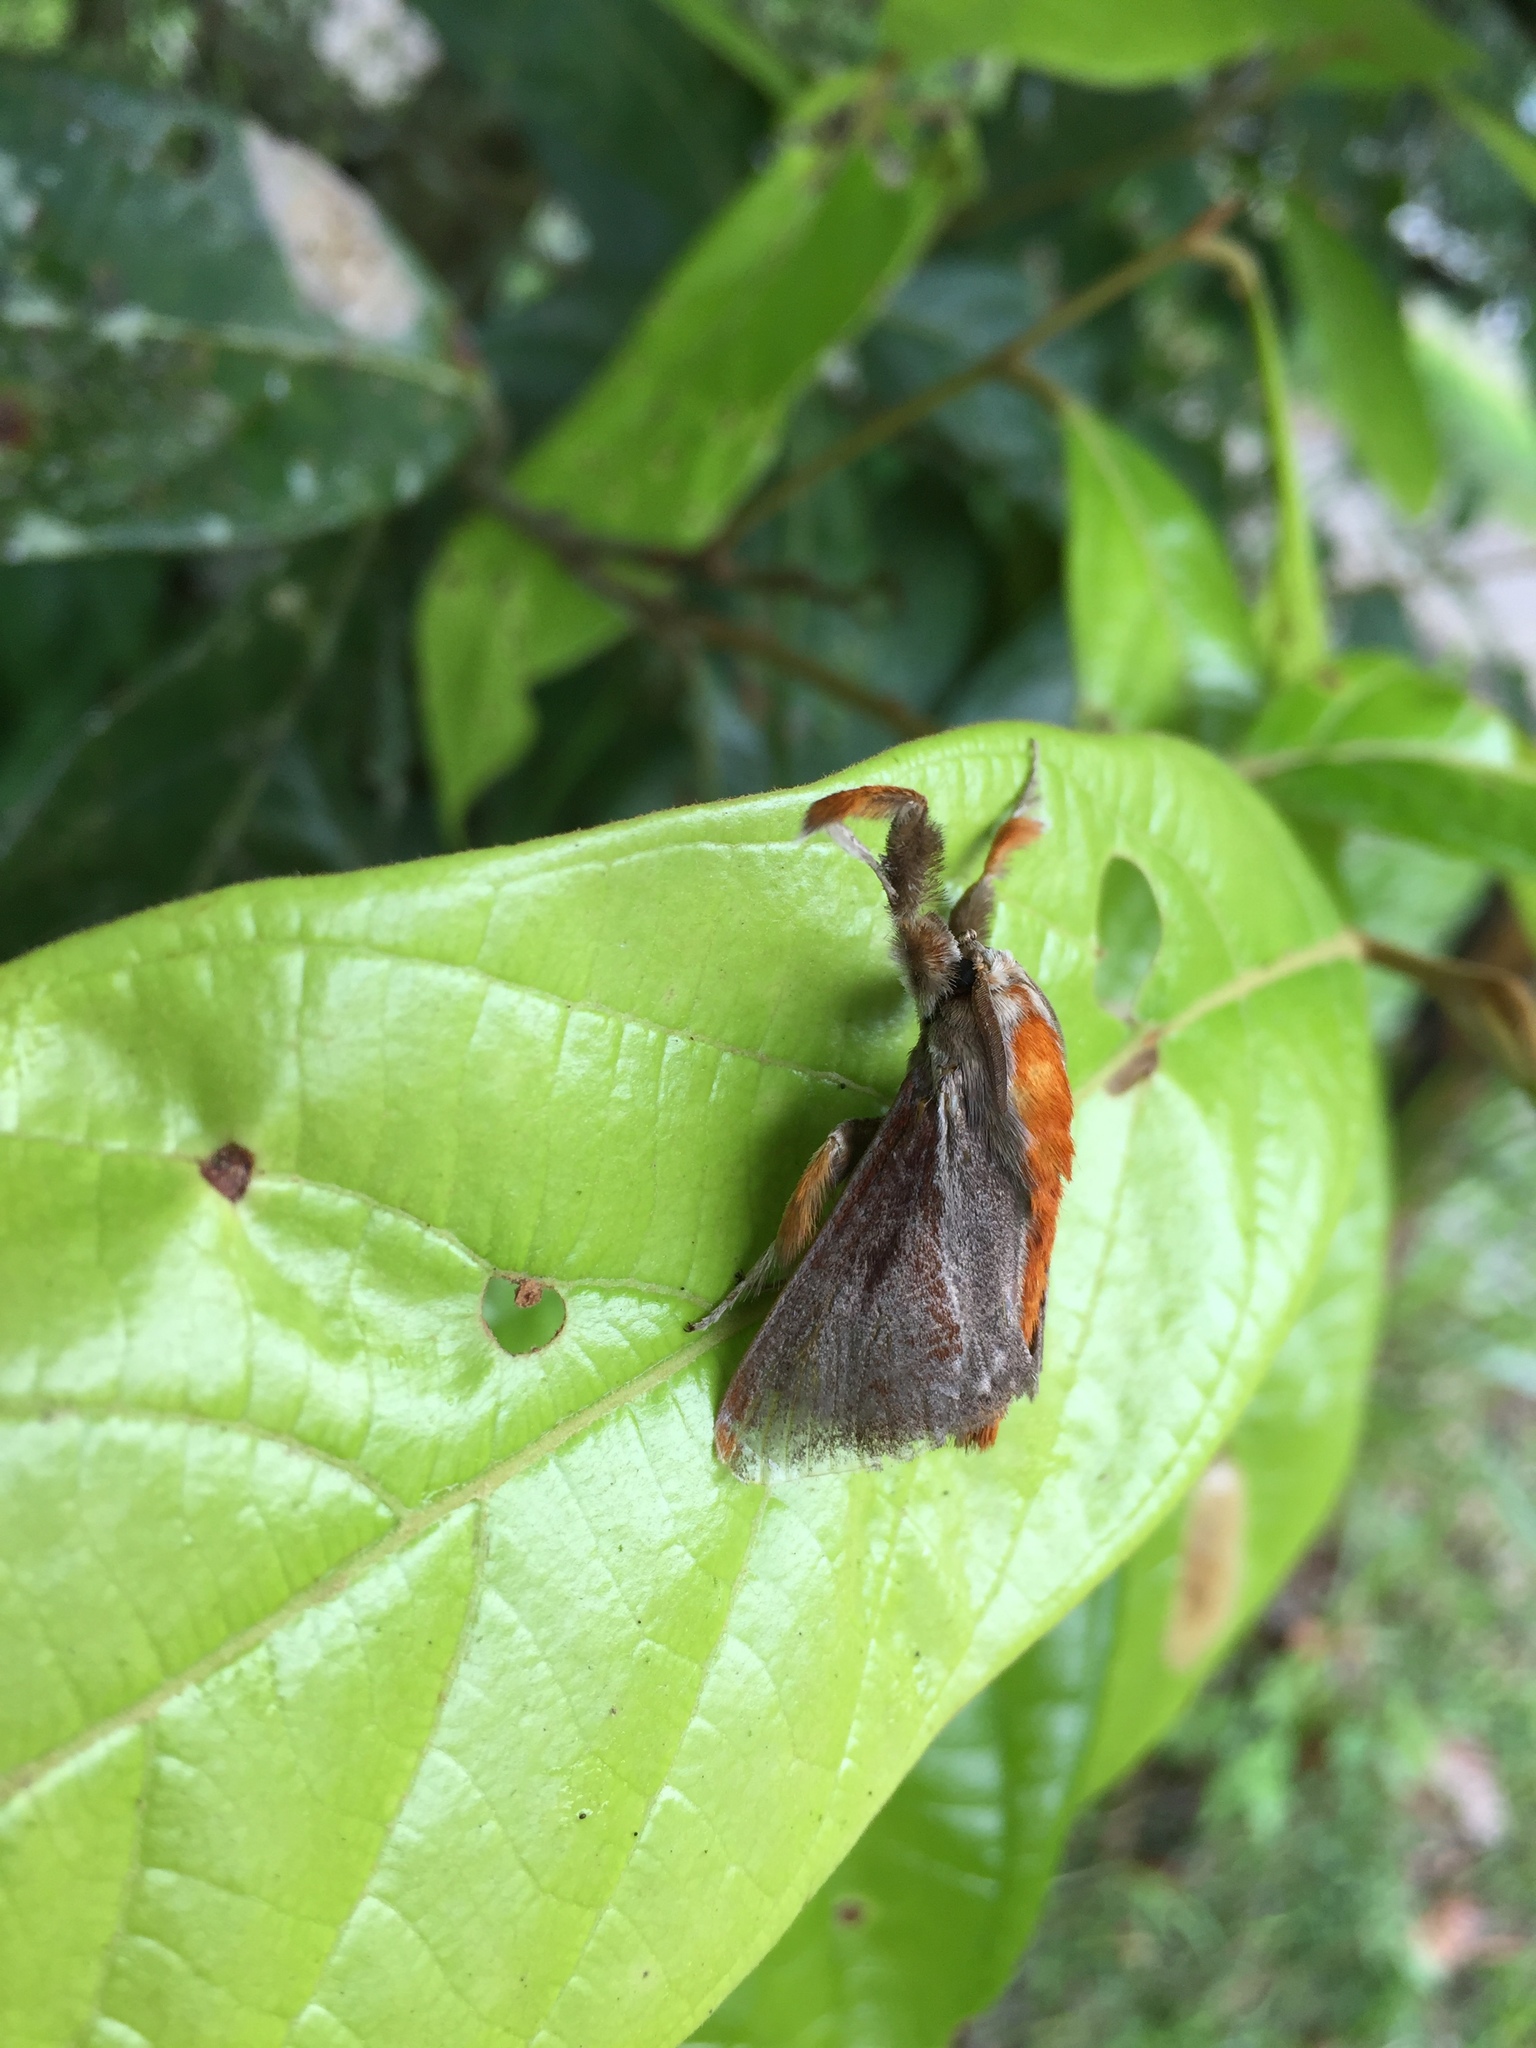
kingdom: Animalia
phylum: Arthropoda
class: Insecta
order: Lepidoptera
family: Limacodidae
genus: Epiperola
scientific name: Epiperola grandiosa
